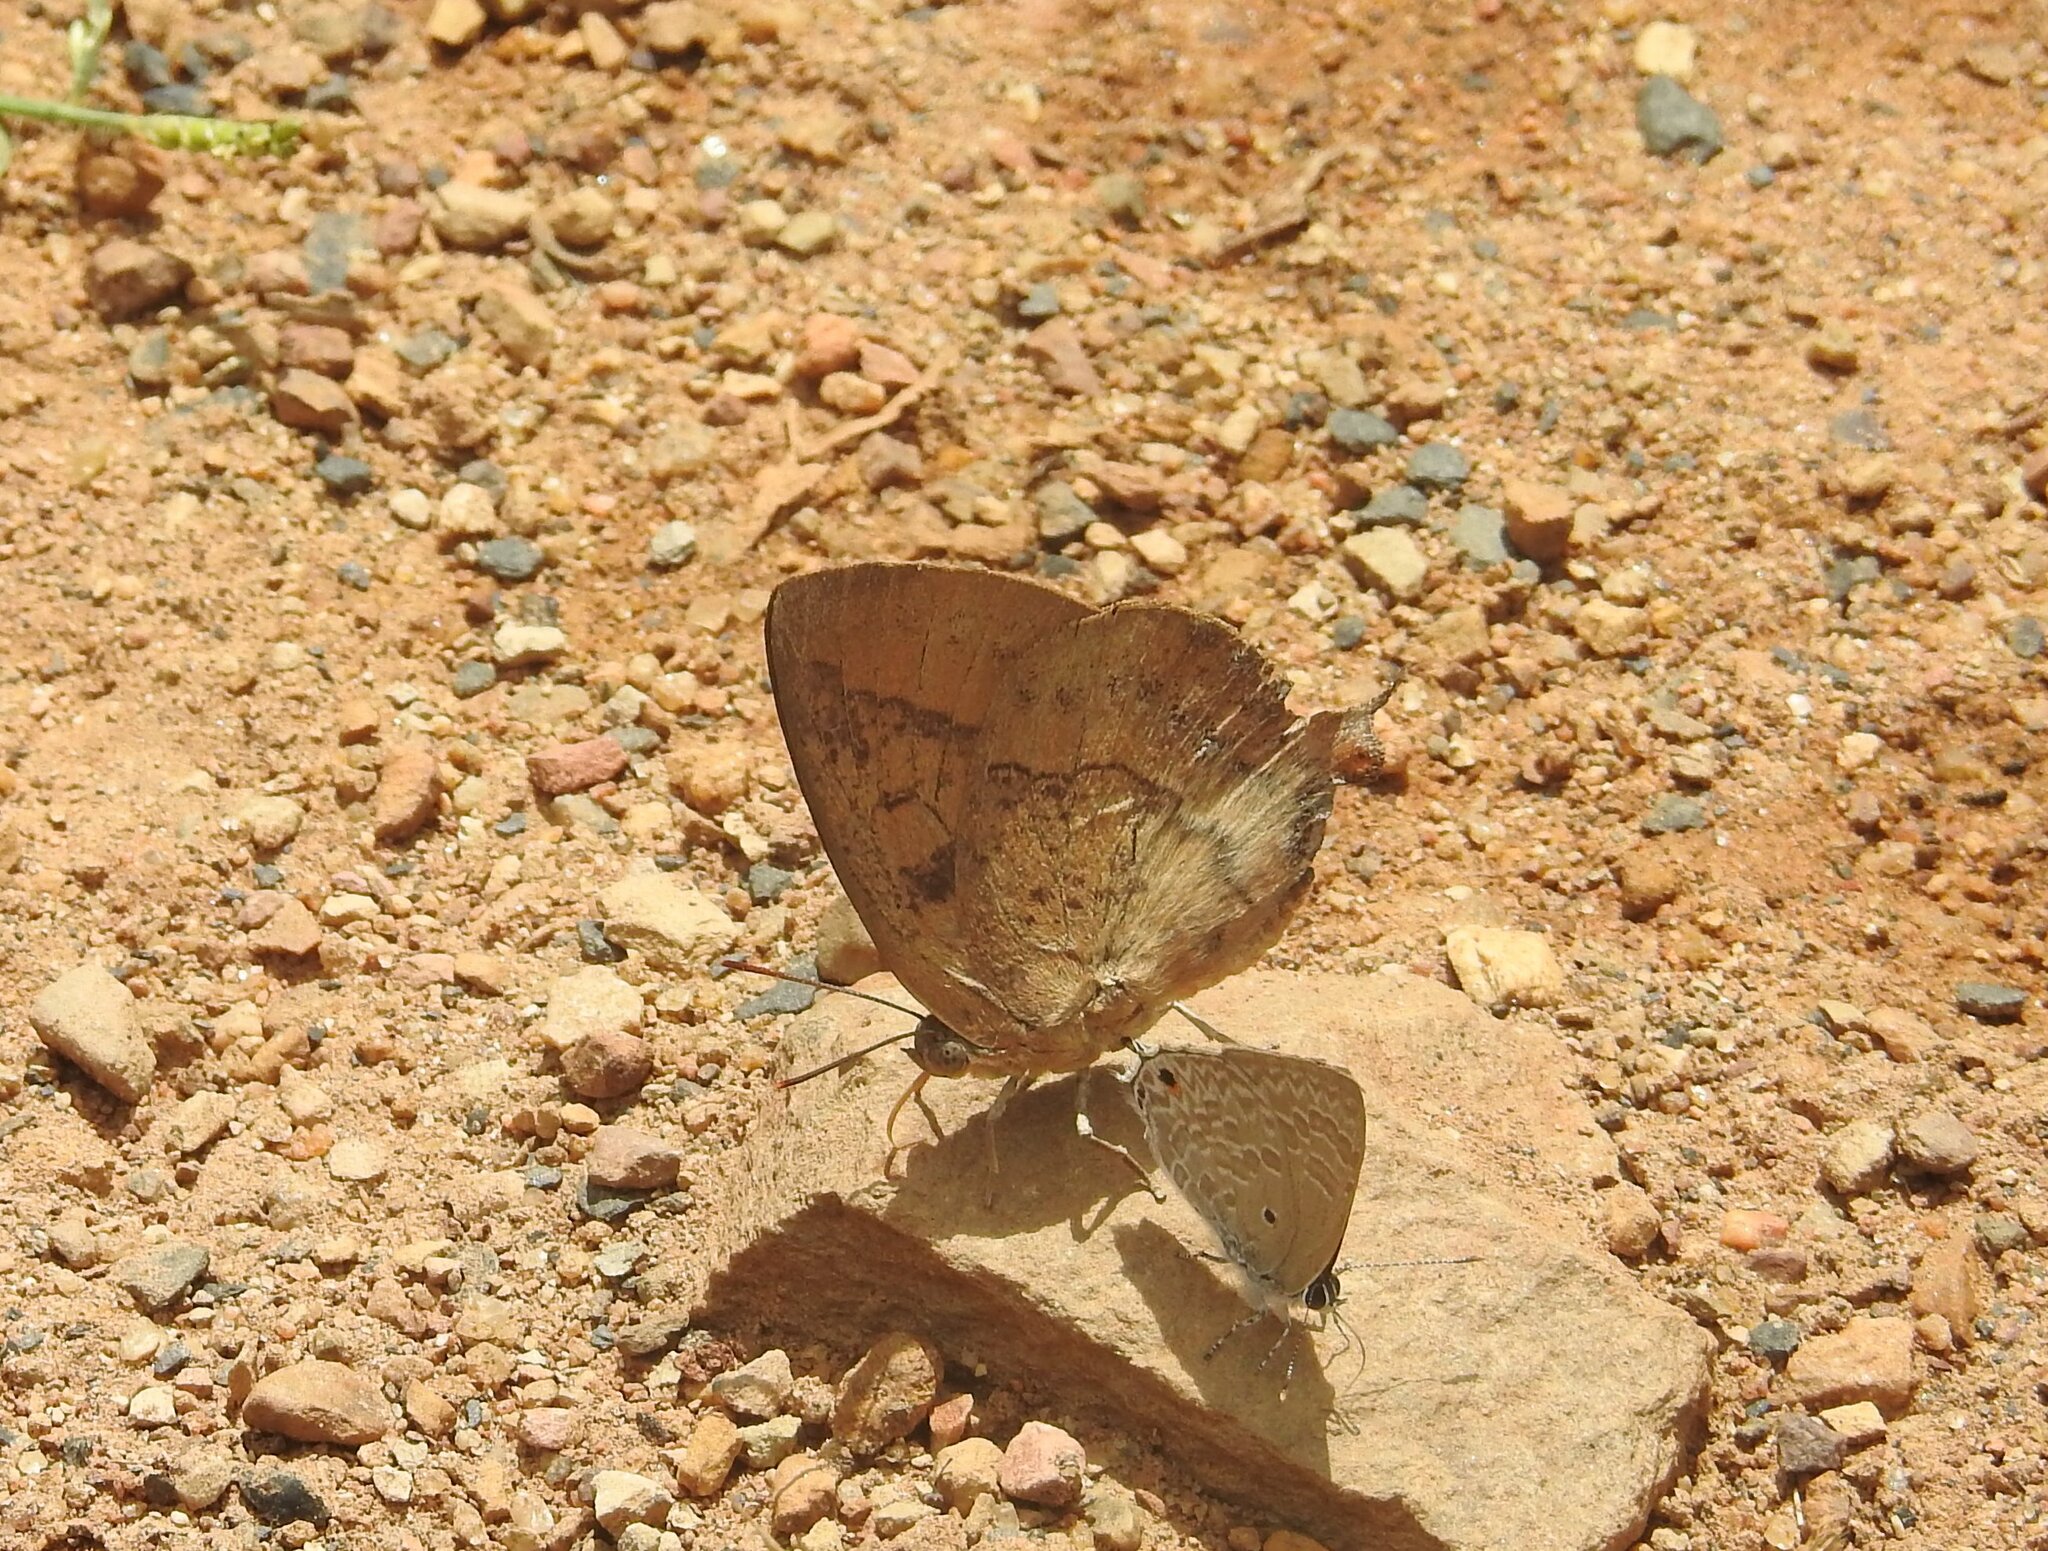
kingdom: Animalia
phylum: Arthropoda
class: Insecta
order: Lepidoptera
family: Lycaenidae
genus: Amblypodia
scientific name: Amblypodia anita
